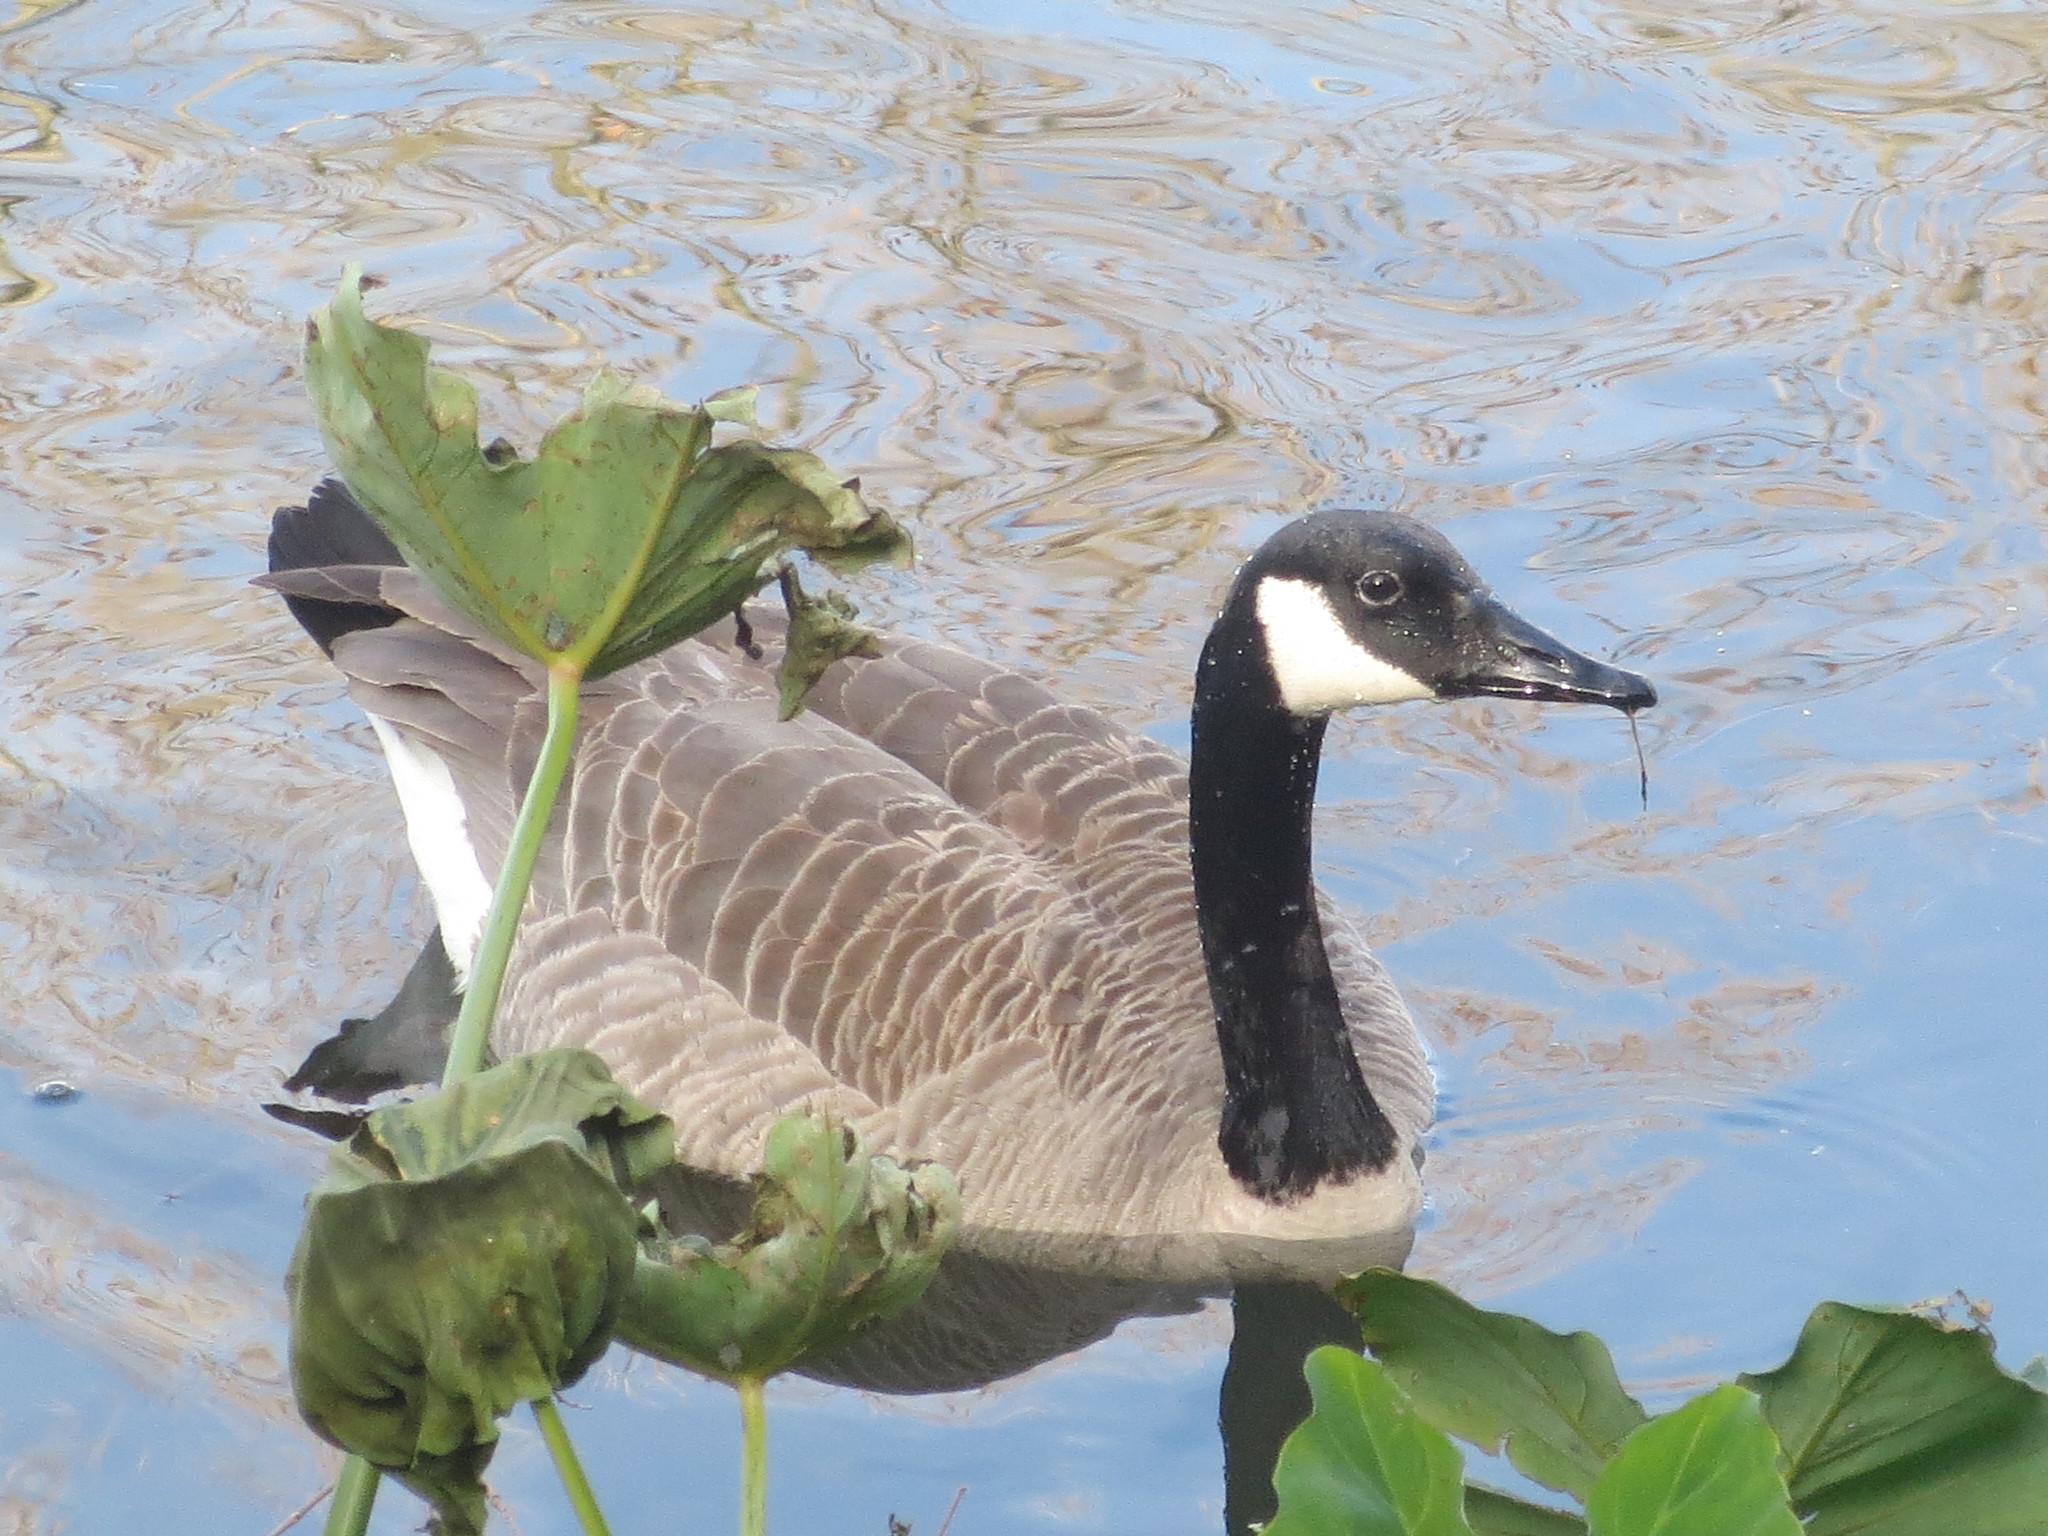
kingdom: Animalia
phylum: Chordata
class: Aves
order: Anseriformes
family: Anatidae
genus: Branta
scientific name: Branta canadensis
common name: Canada goose
